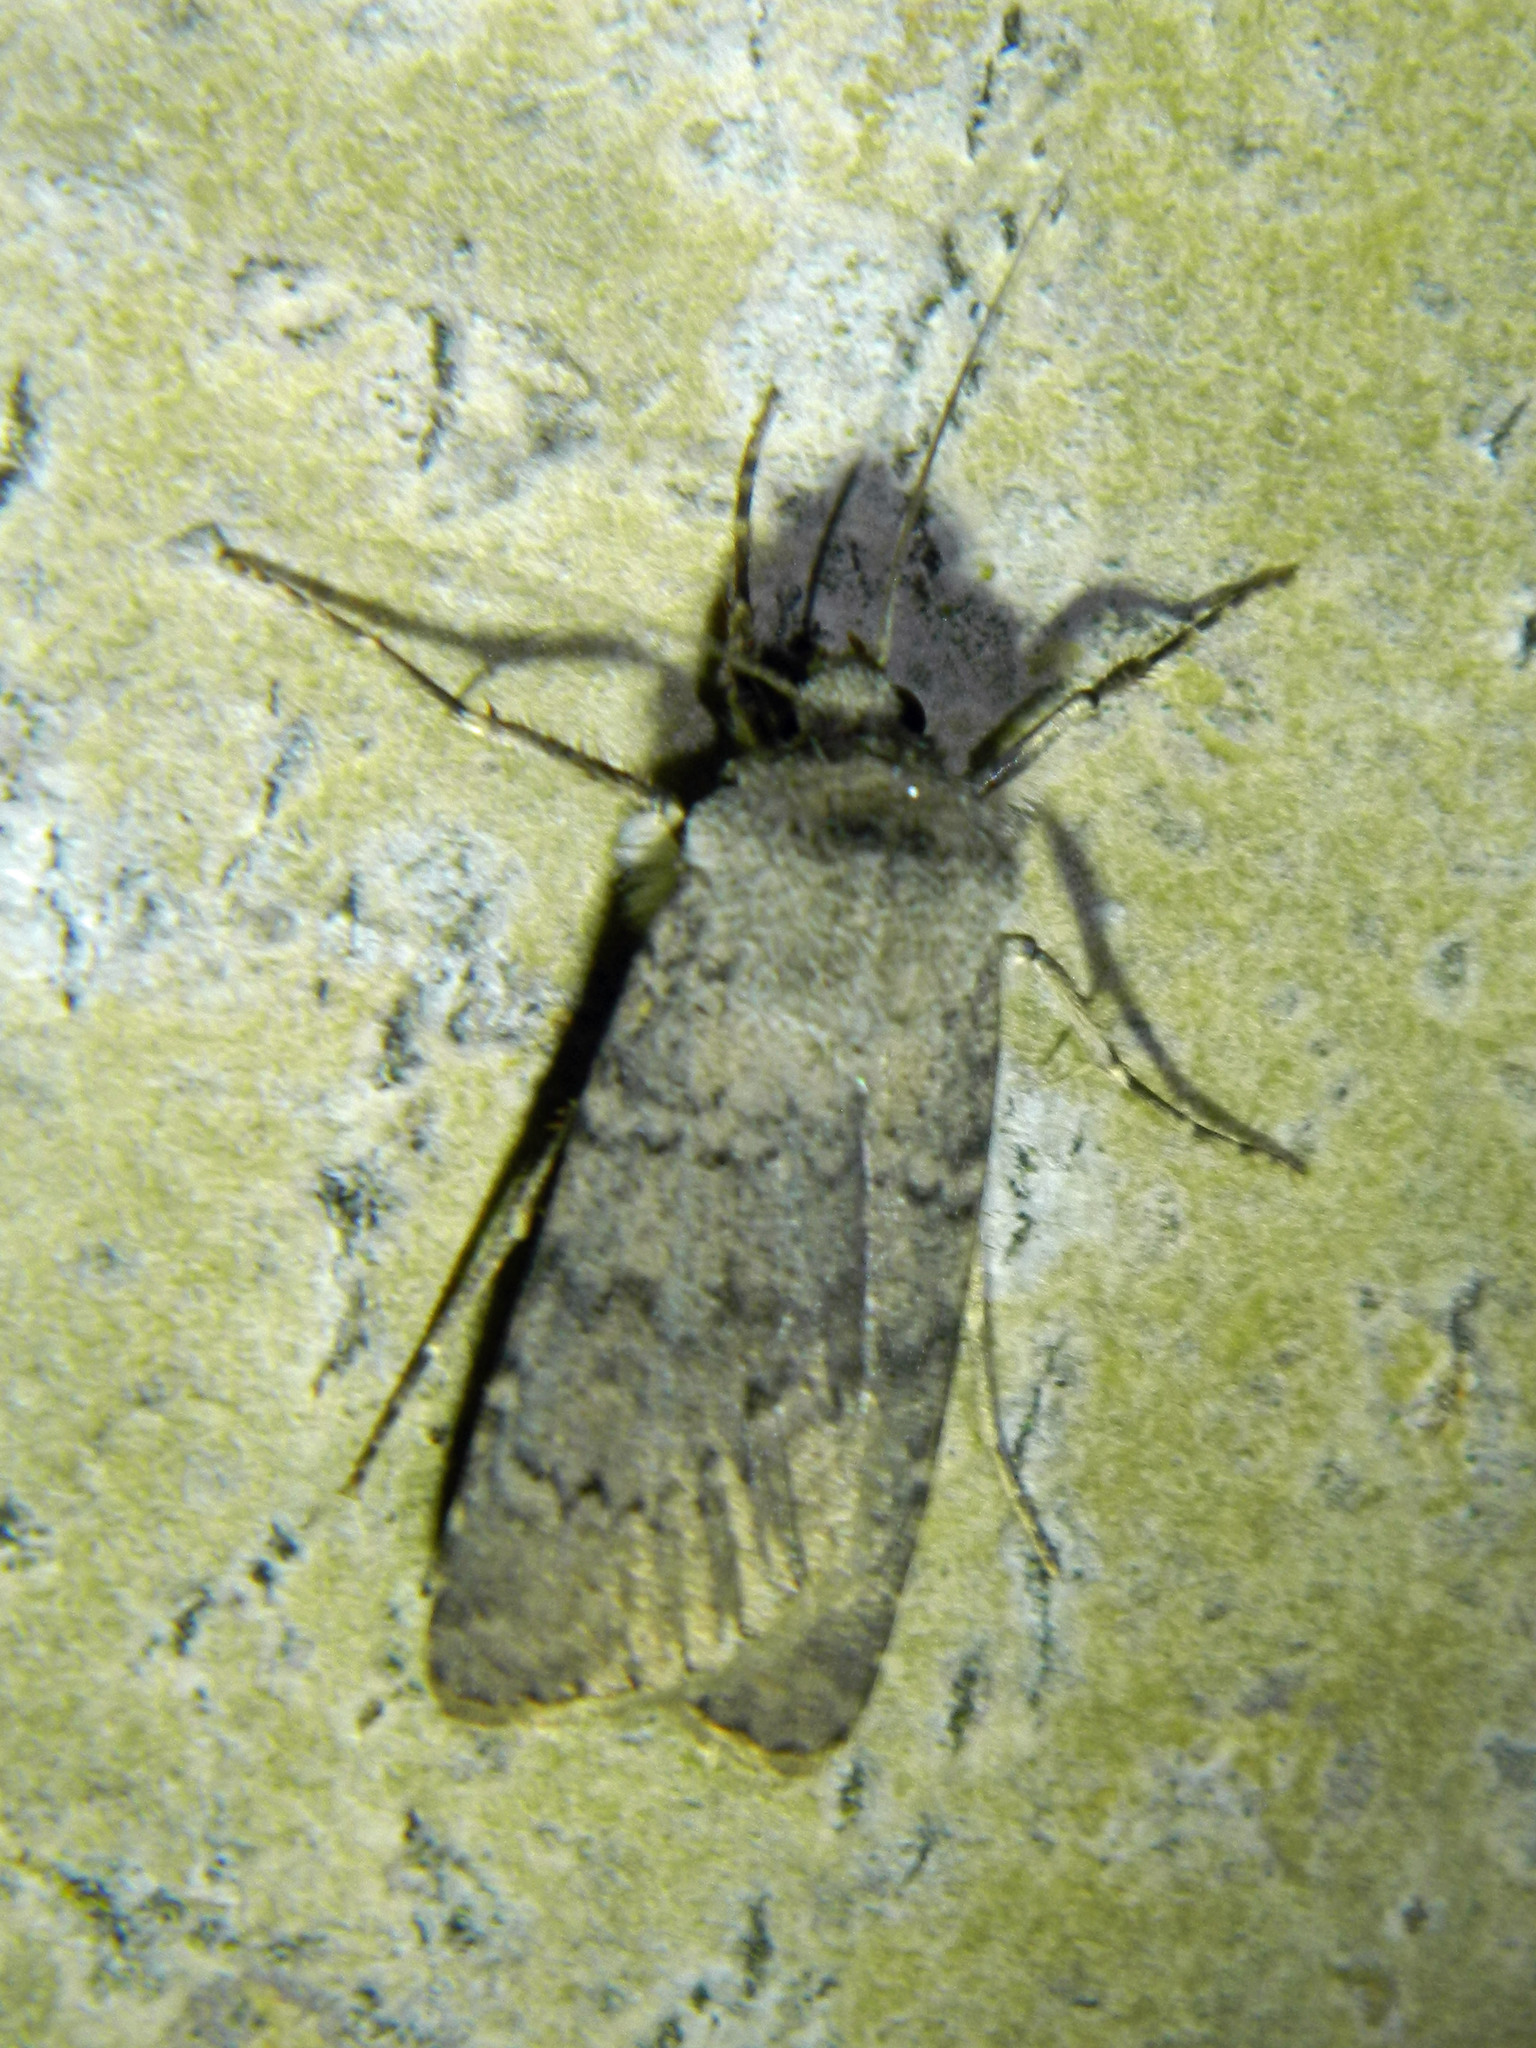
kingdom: Animalia
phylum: Arthropoda
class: Insecta
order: Lepidoptera
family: Noctuidae
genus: Euxoa
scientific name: Euxoa comosa
